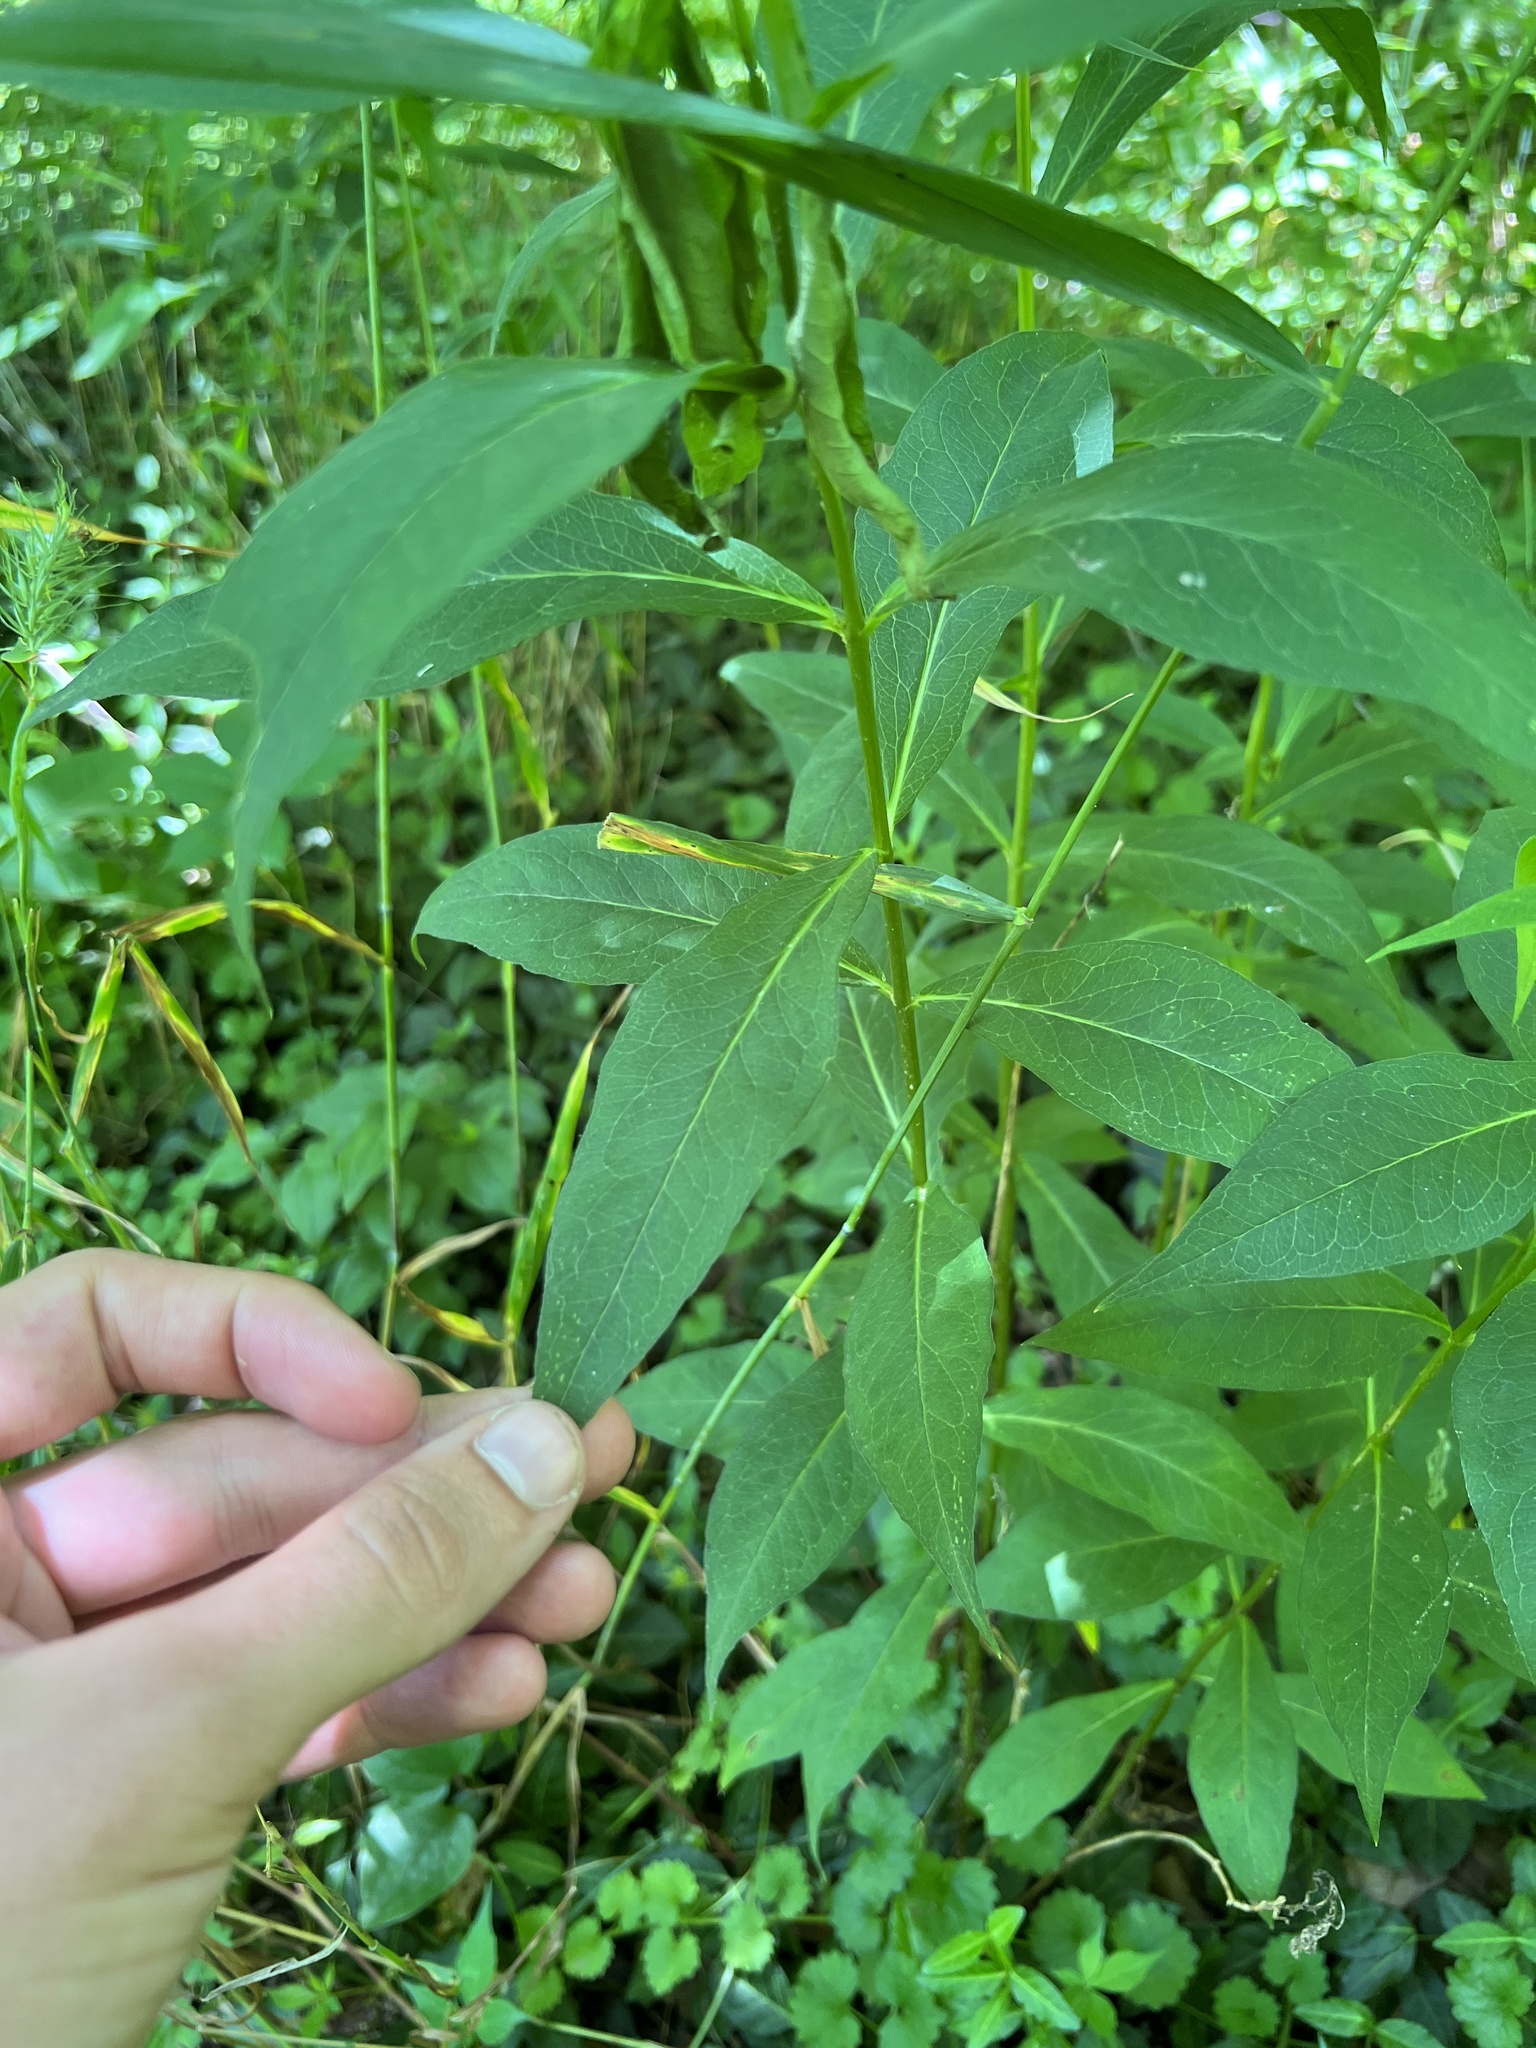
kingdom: Plantae
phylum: Tracheophyta
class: Magnoliopsida
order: Ericales
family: Polemoniaceae
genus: Phlox
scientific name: Phlox paniculata
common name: Fall phlox
